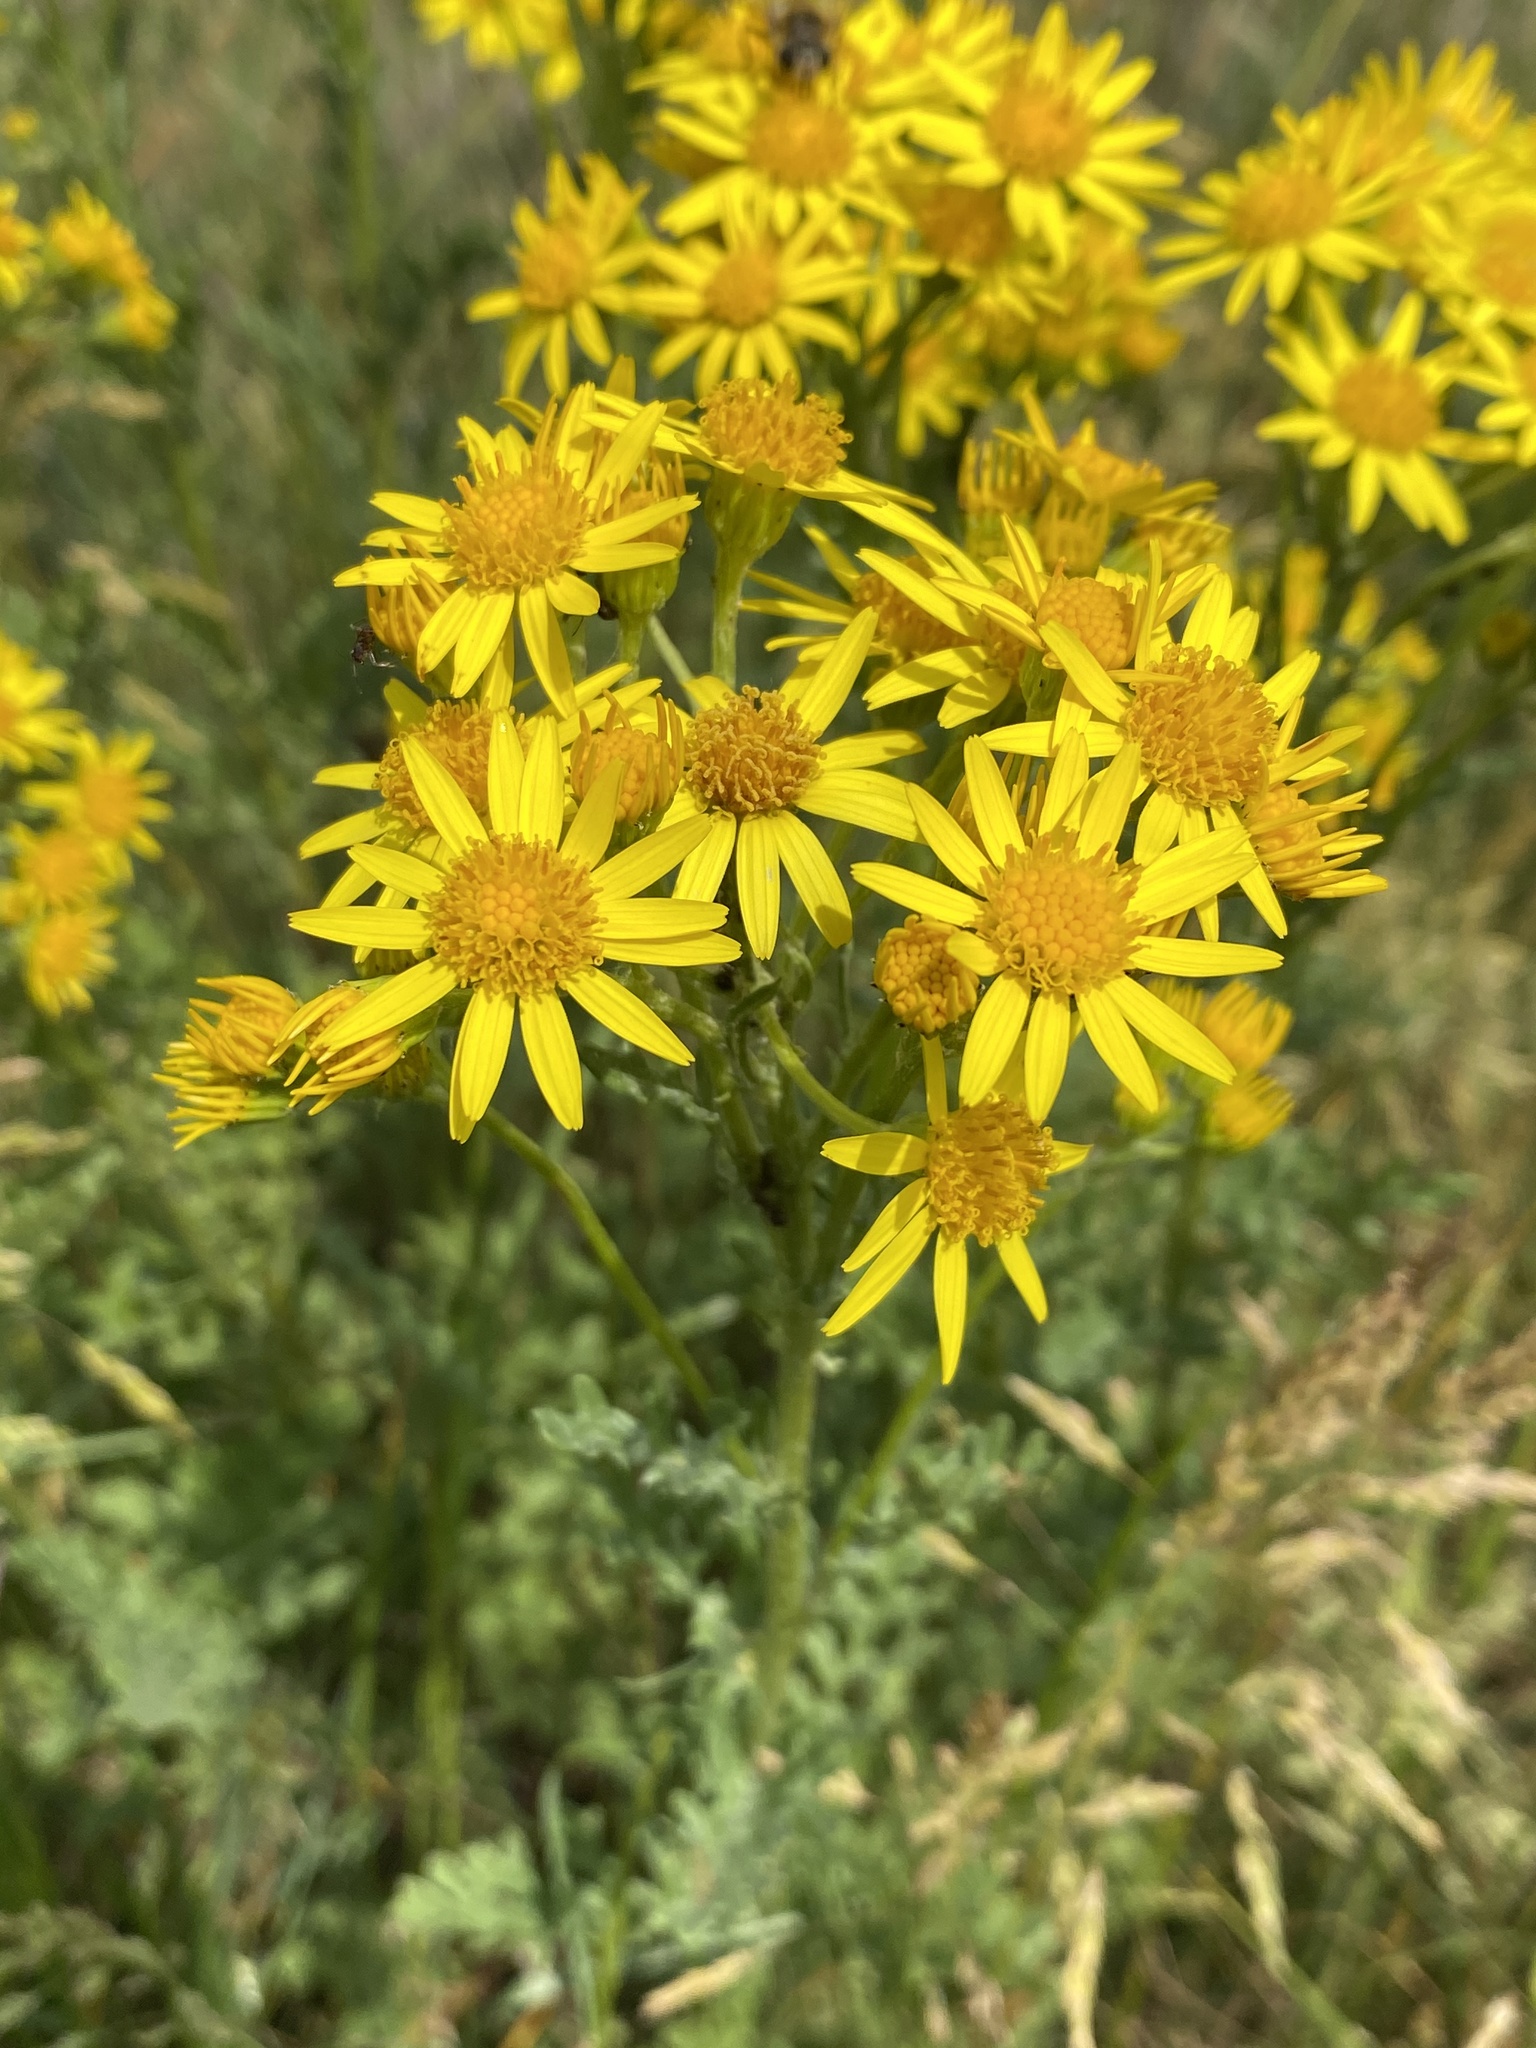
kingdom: Plantae
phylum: Tracheophyta
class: Magnoliopsida
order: Asterales
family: Asteraceae
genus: Jacobaea
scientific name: Jacobaea vulgaris
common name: Stinking willie
